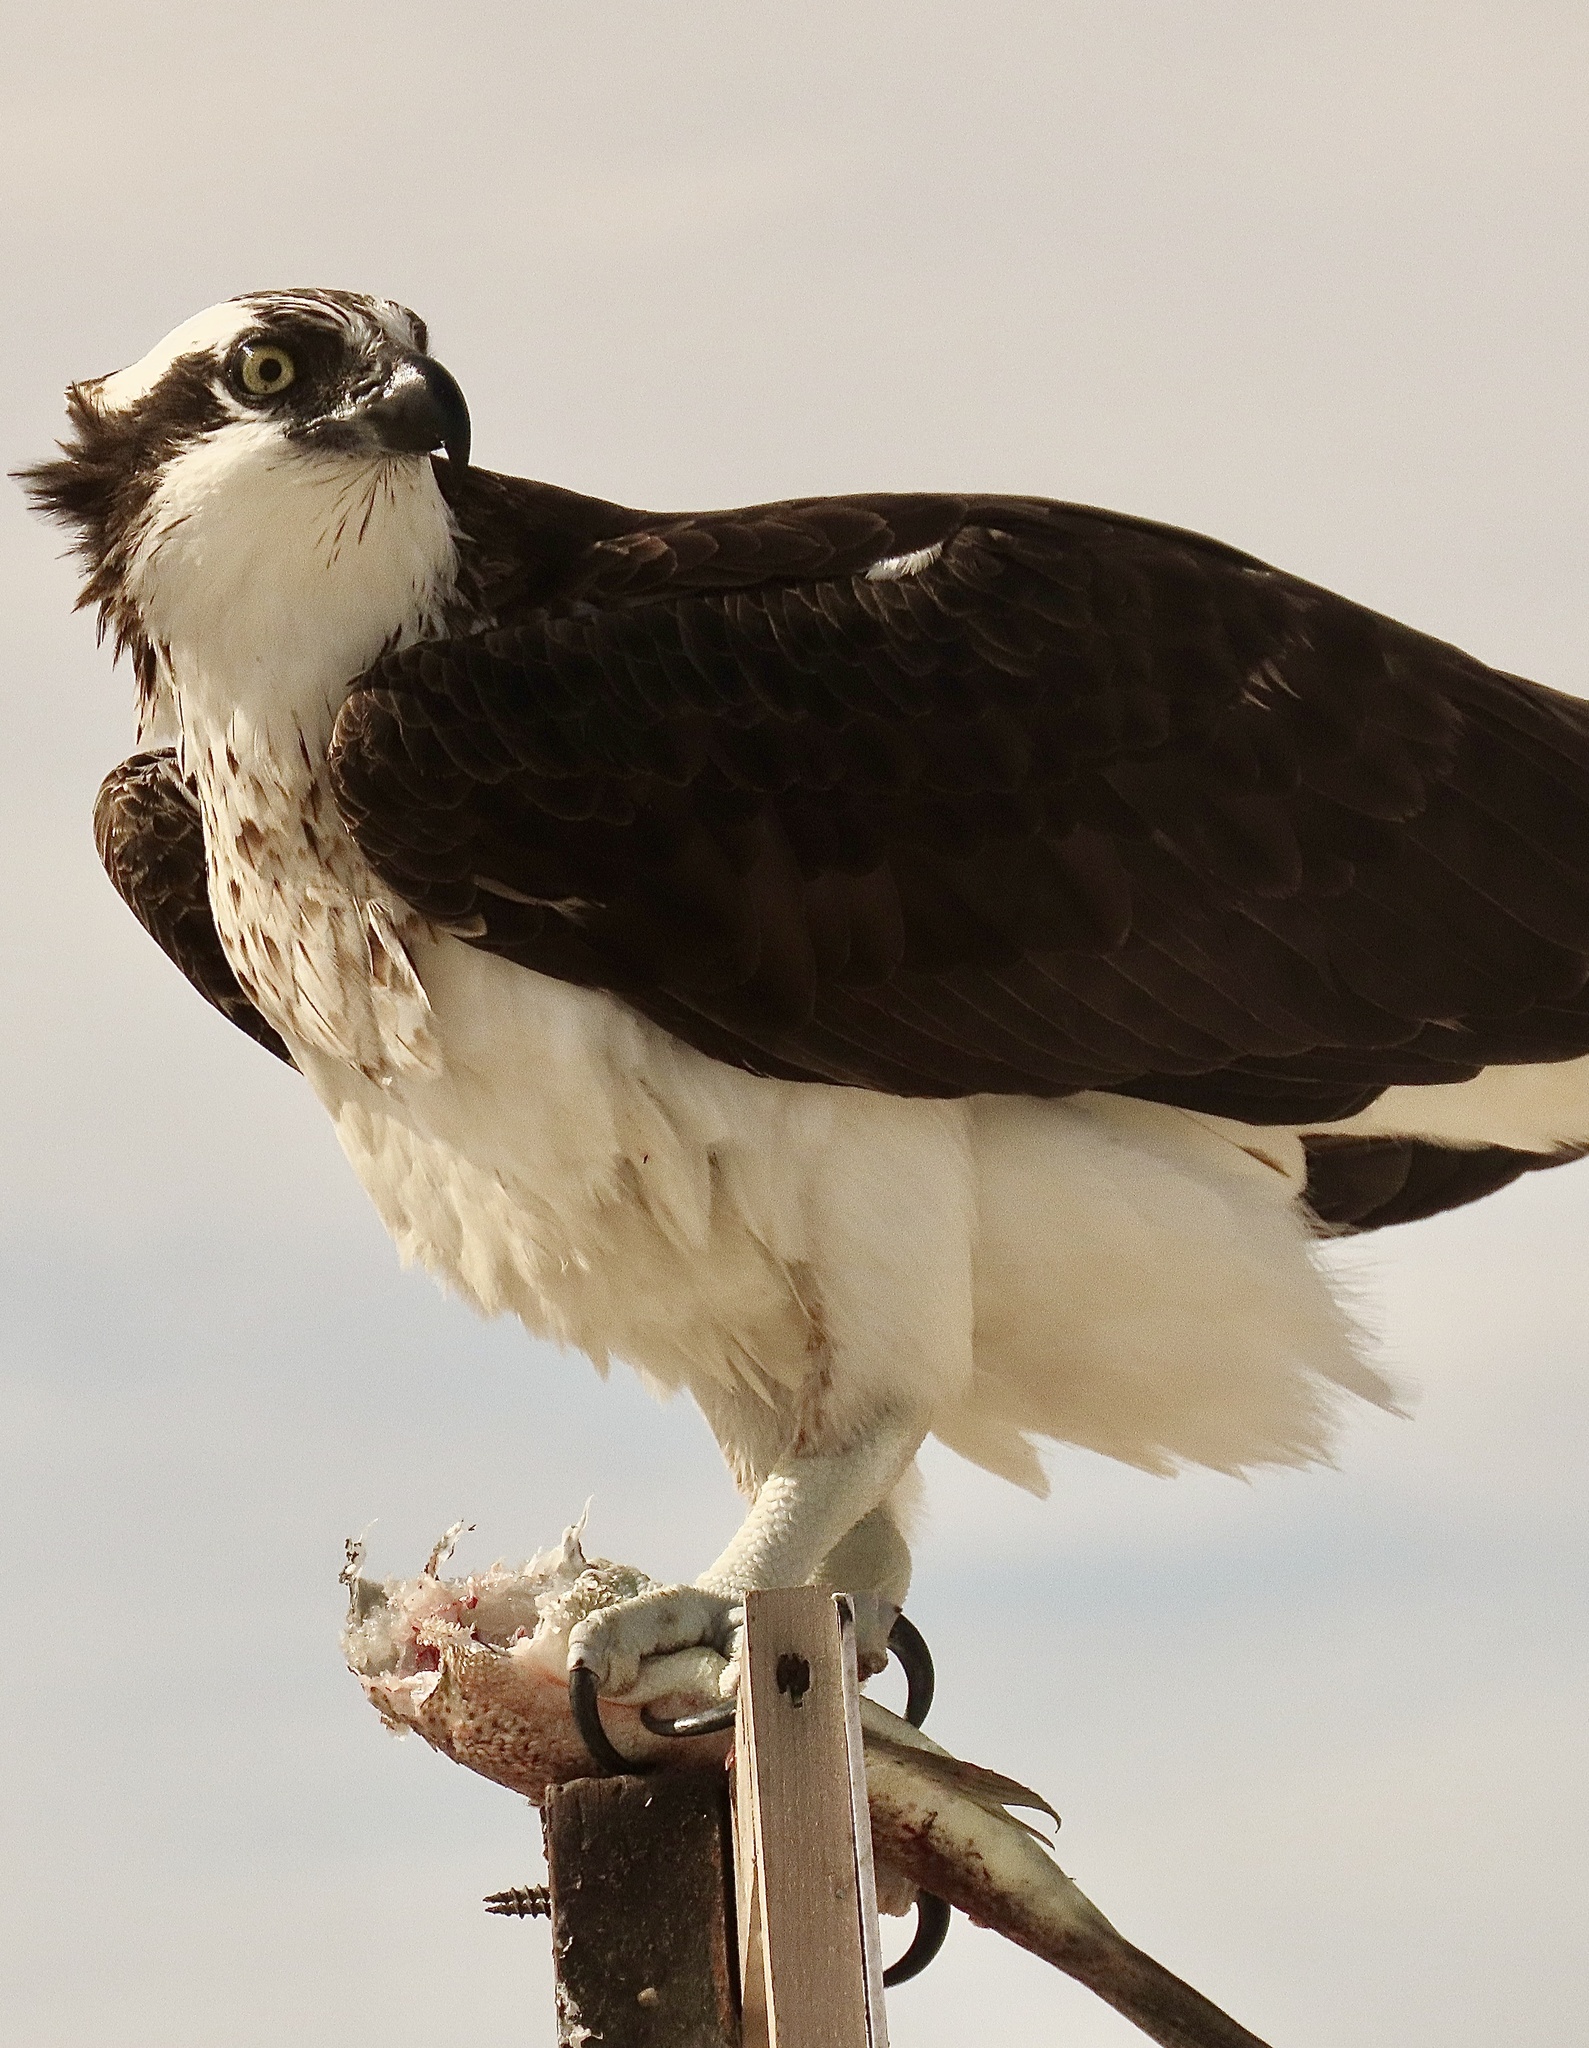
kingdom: Animalia
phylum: Chordata
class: Aves
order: Accipitriformes
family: Pandionidae
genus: Pandion
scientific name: Pandion haliaetus
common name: Osprey
